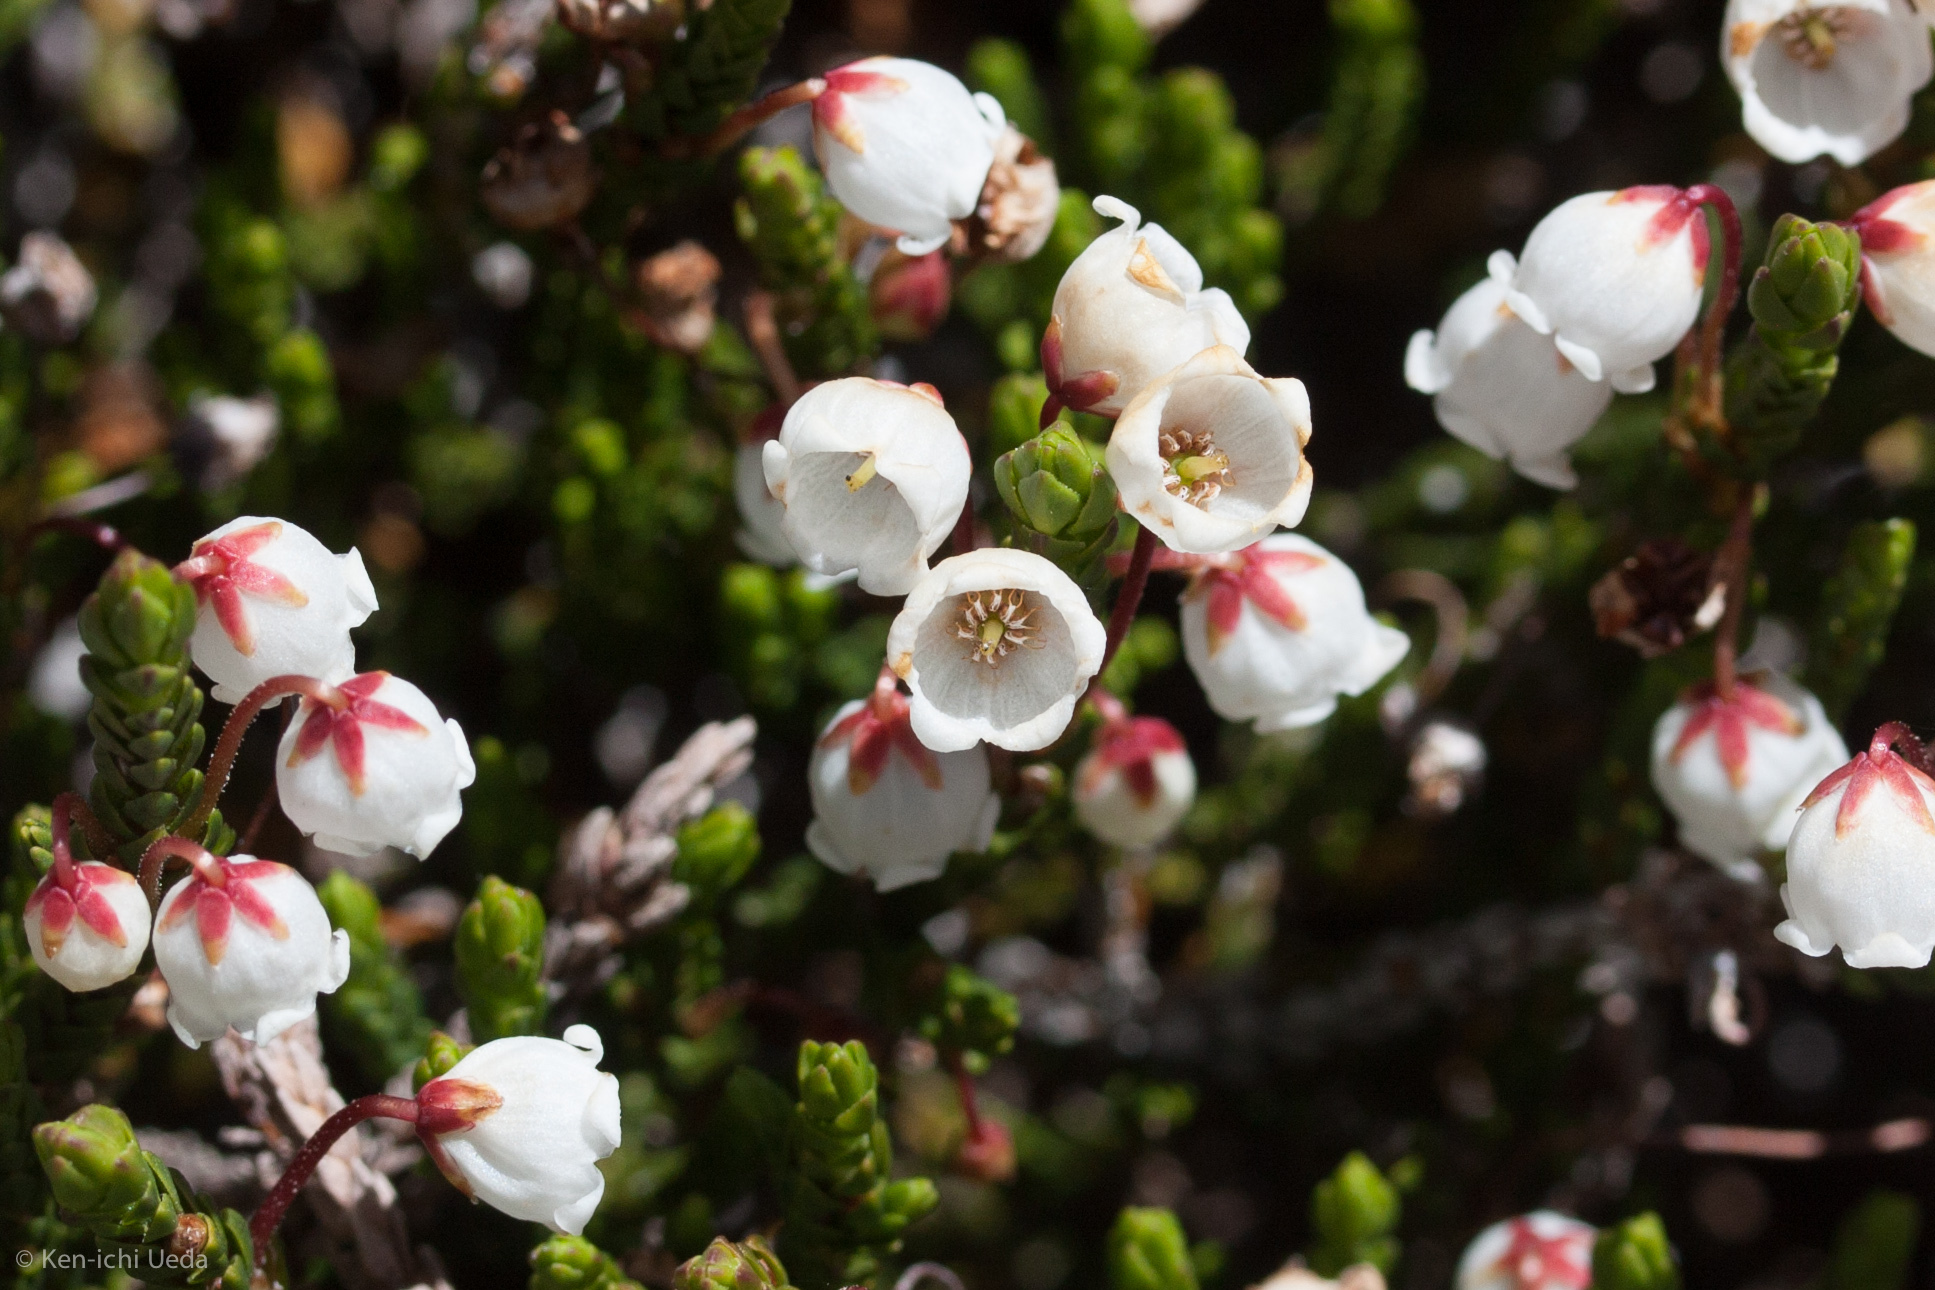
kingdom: Plantae
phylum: Tracheophyta
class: Magnoliopsida
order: Ericales
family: Ericaceae
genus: Cassiope
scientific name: Cassiope mertensiana
